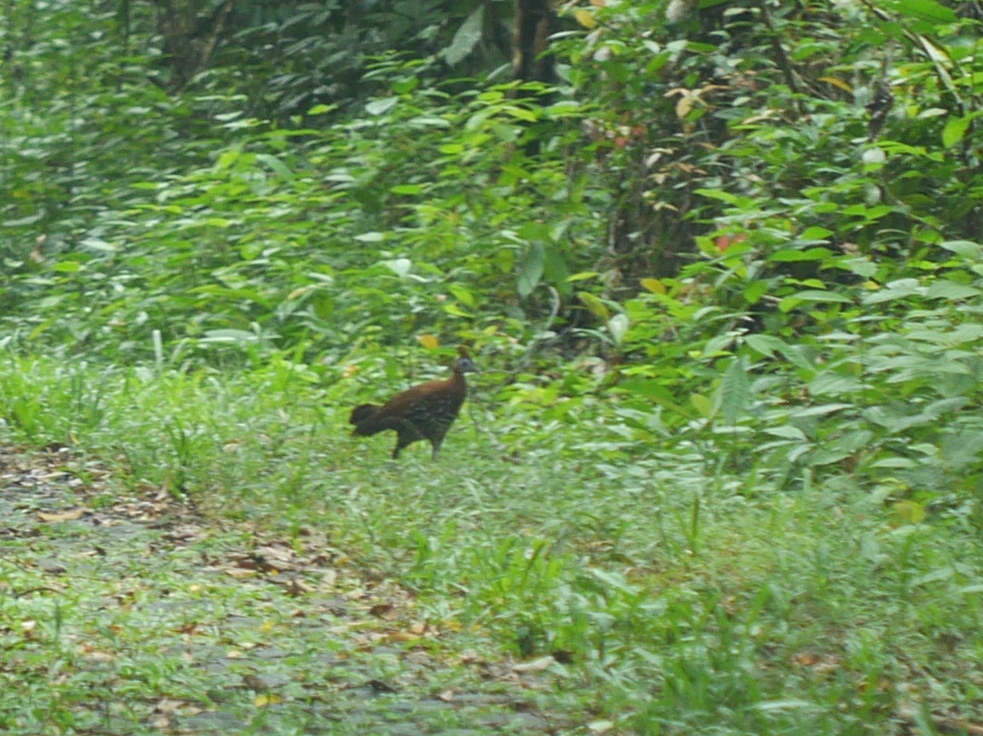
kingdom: Animalia
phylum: Chordata
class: Aves
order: Galliformes
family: Phasianidae
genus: Lophura
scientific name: Lophura ignita
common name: Crested fireback
